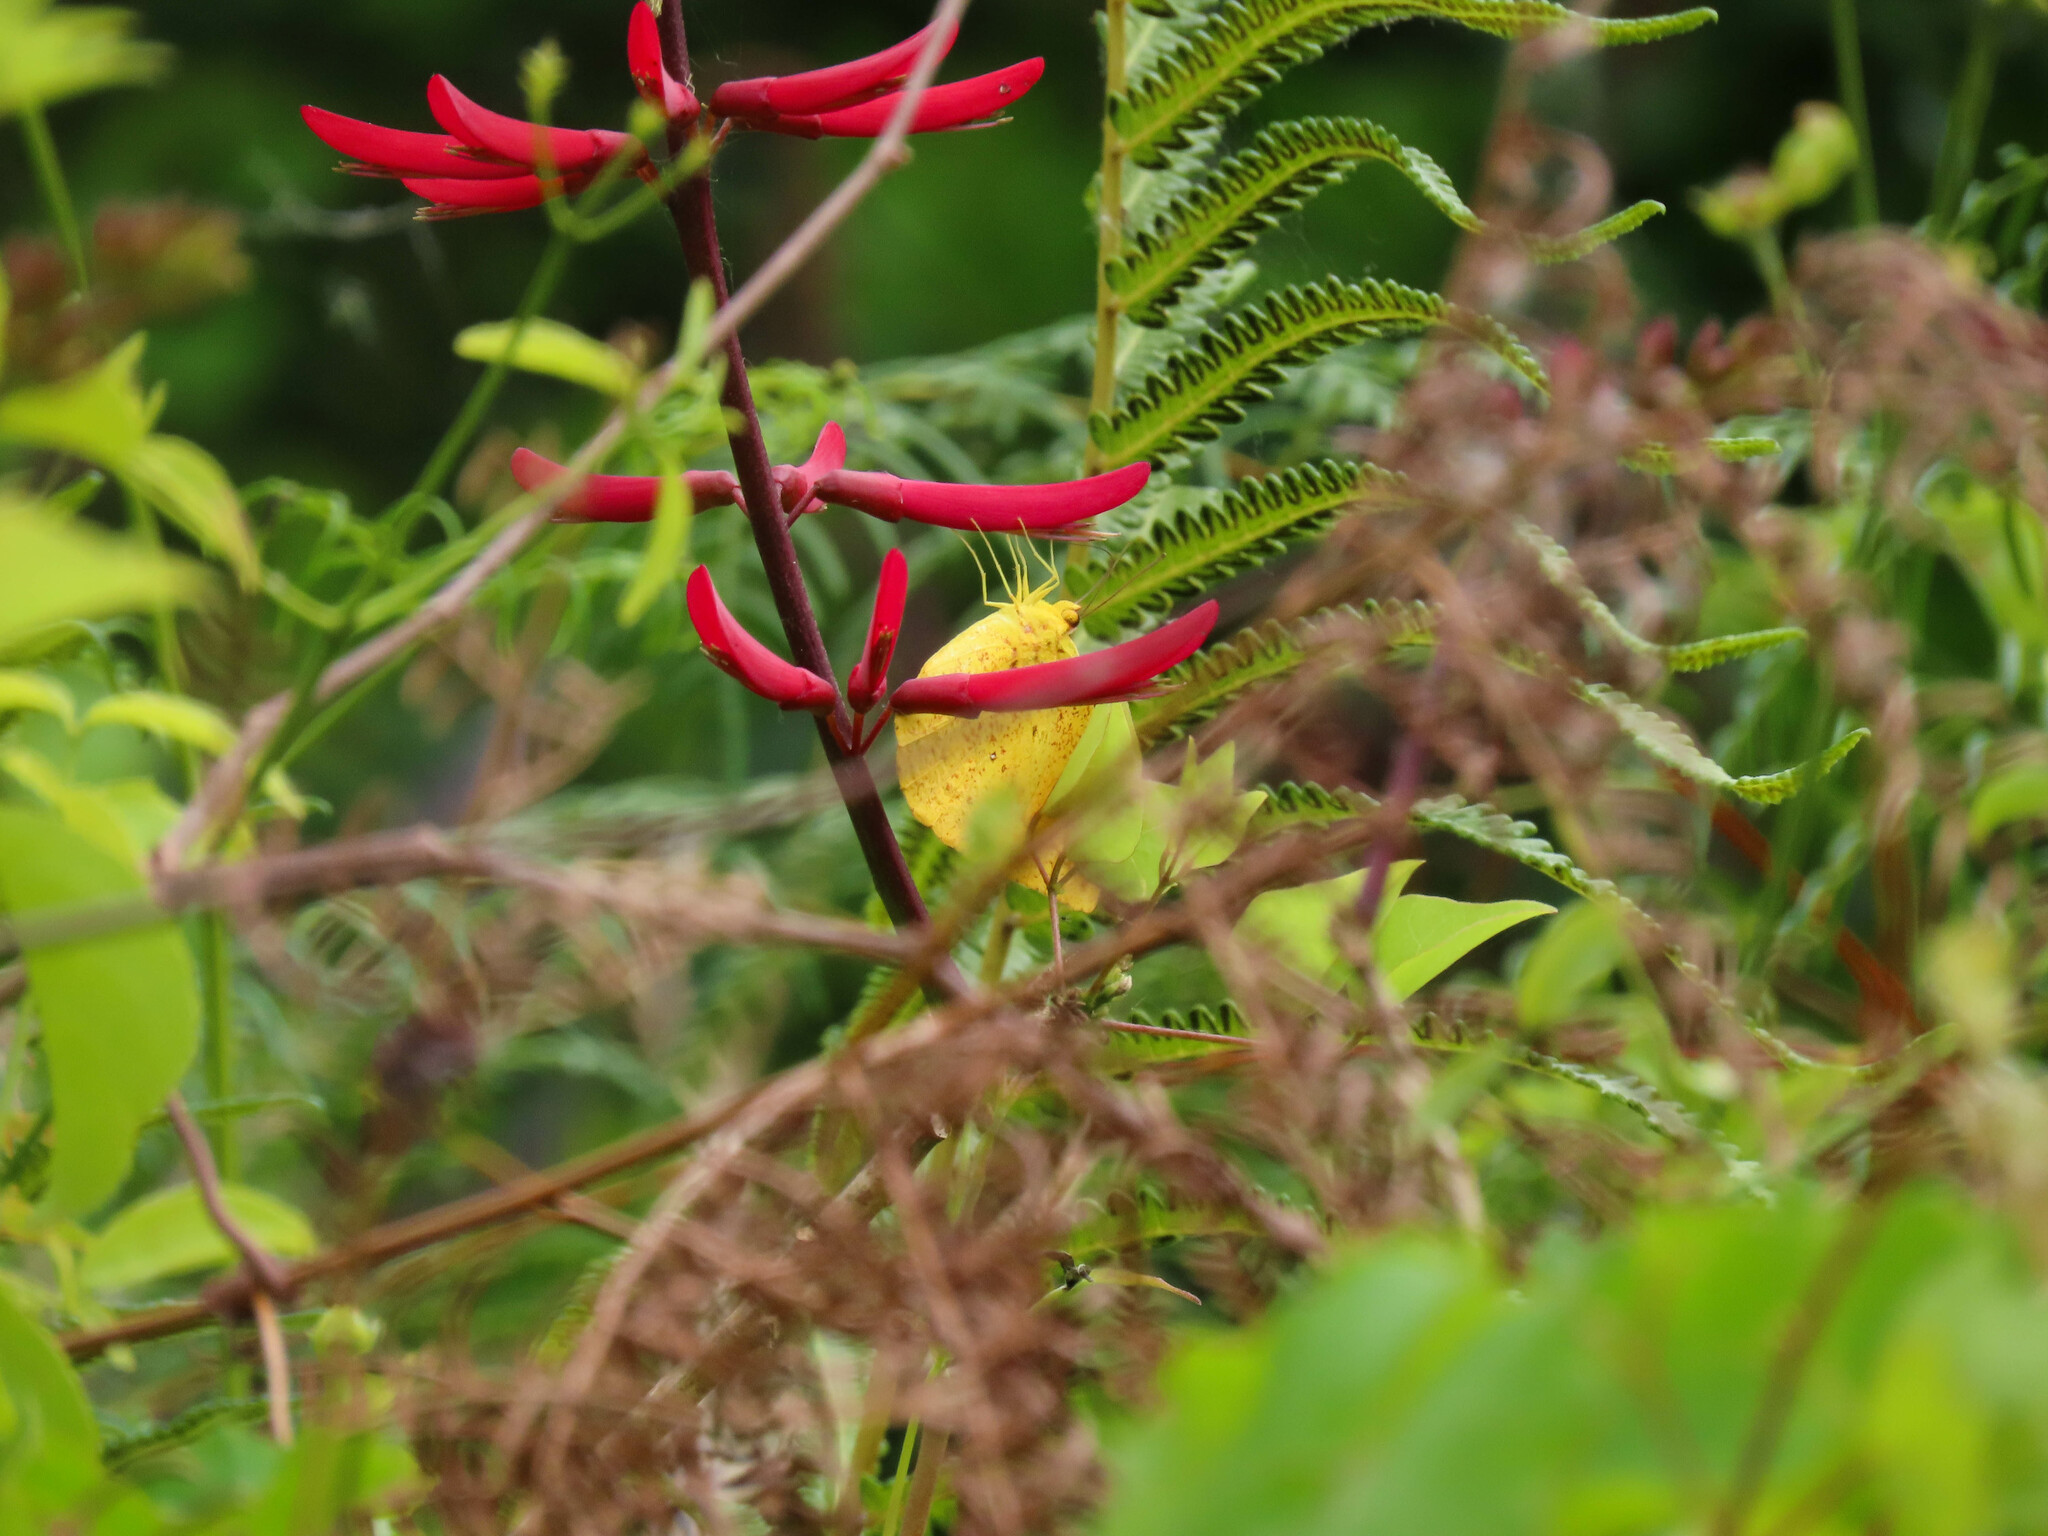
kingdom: Plantae
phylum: Tracheophyta
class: Magnoliopsida
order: Fabales
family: Fabaceae
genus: Erythrina
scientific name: Erythrina herbacea
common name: Coral-bean
